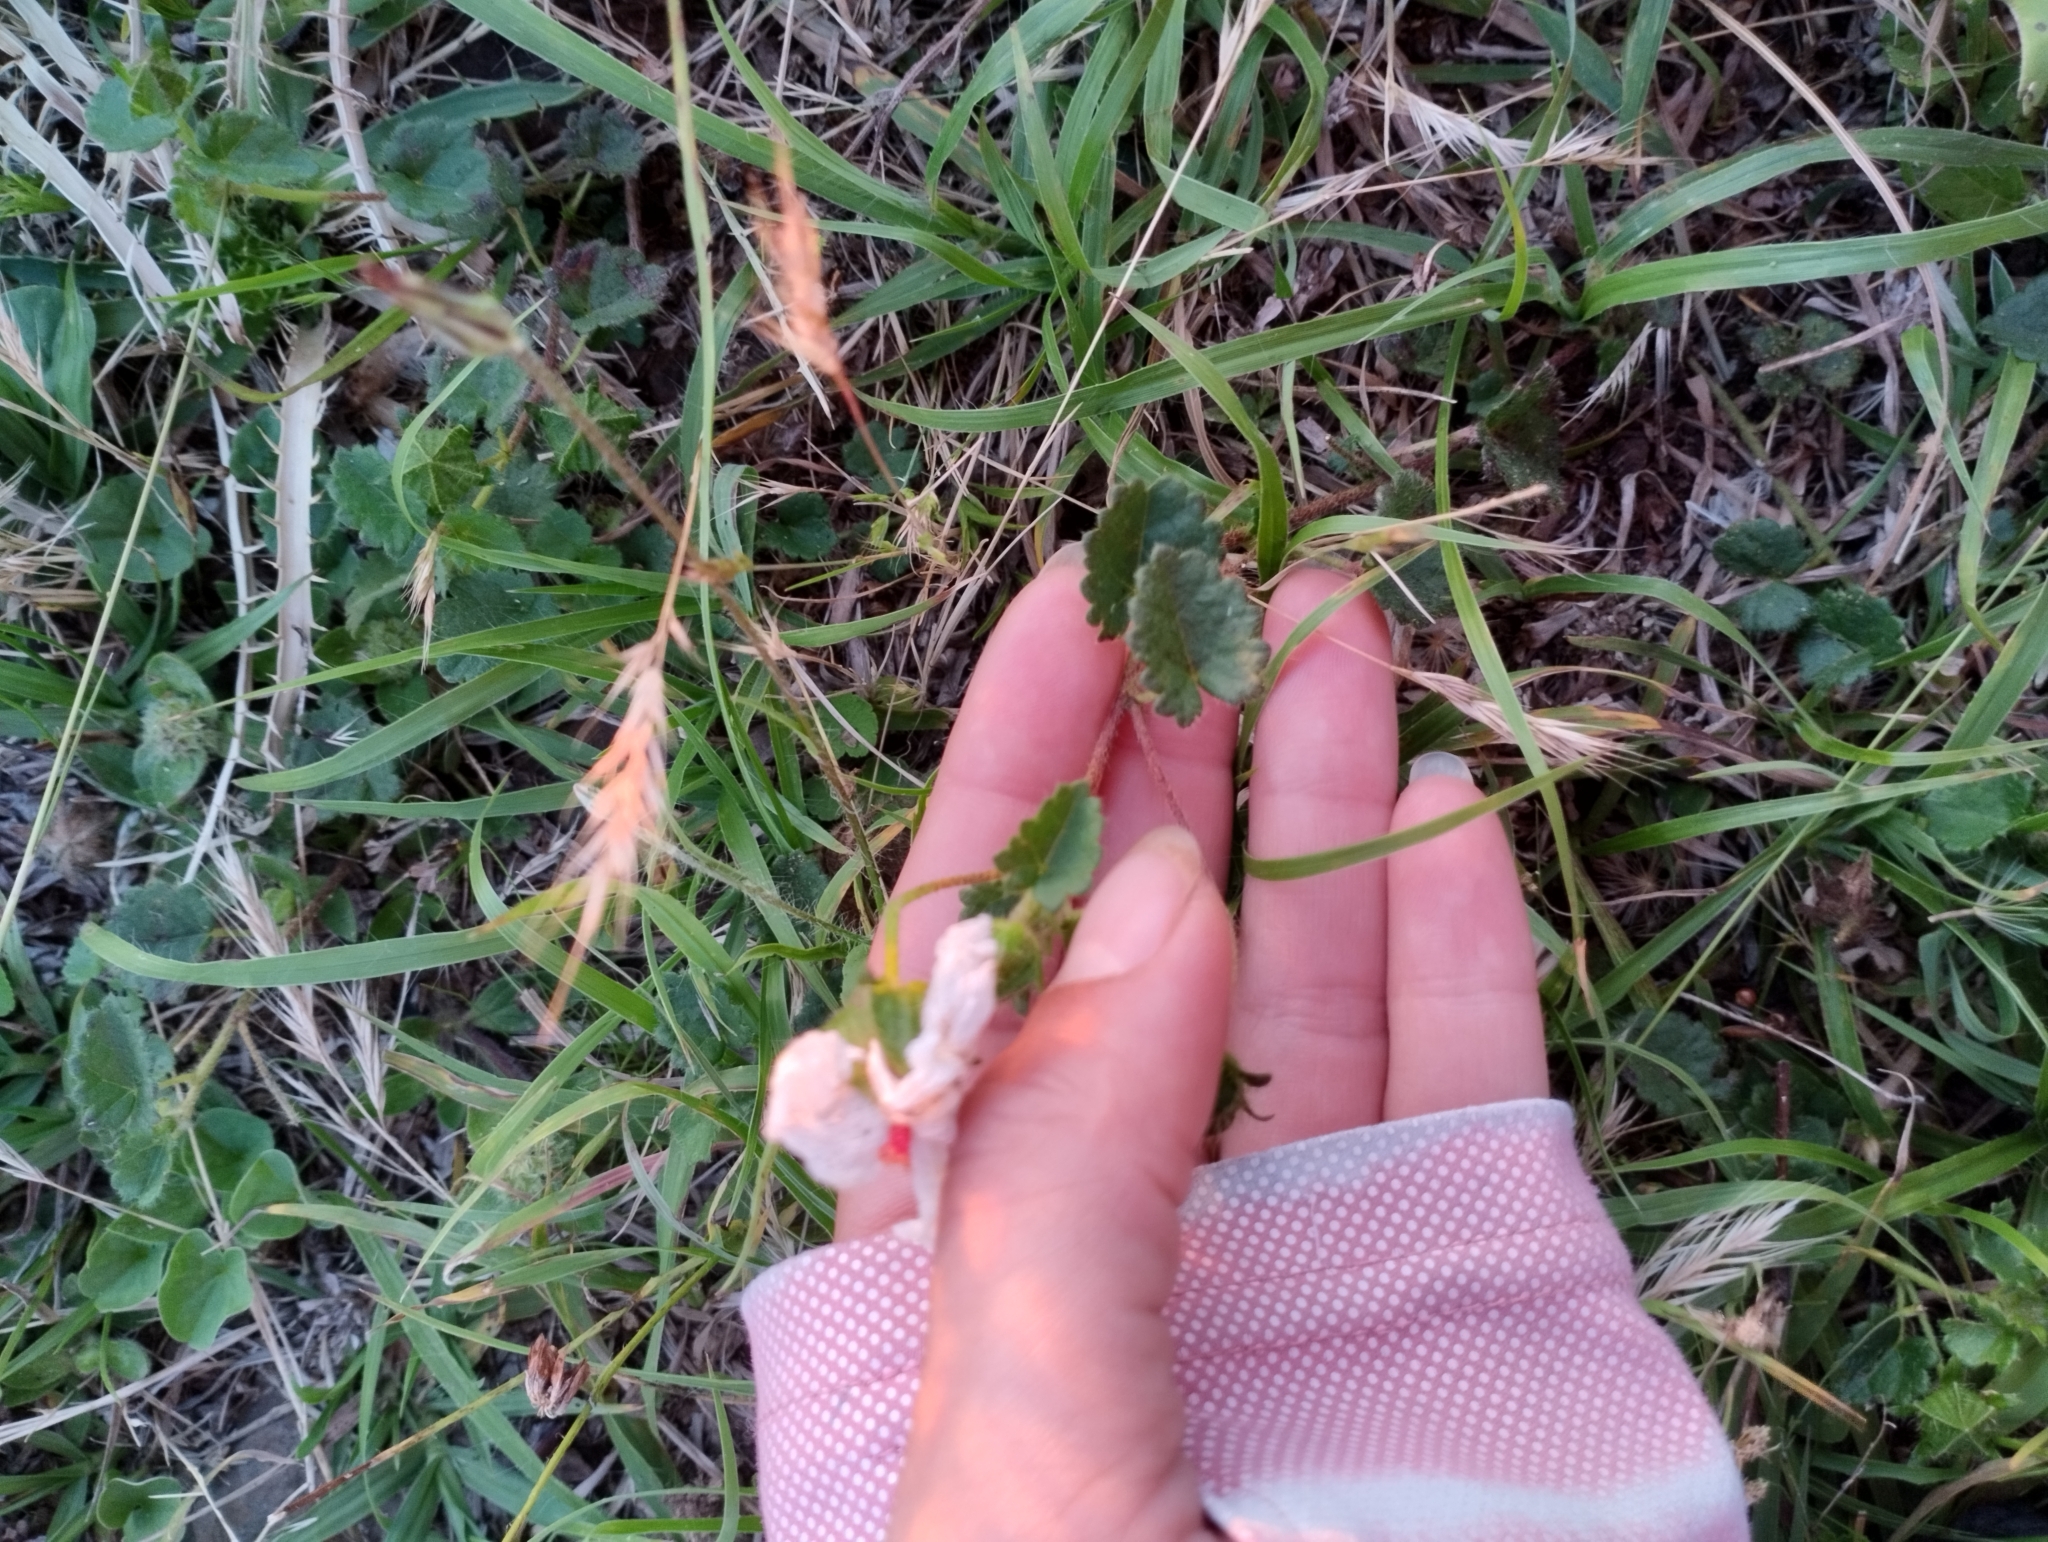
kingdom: Plantae
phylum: Tracheophyta
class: Magnoliopsida
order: Malvales
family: Malvaceae
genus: Pavonia
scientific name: Pavonia glechomoides
